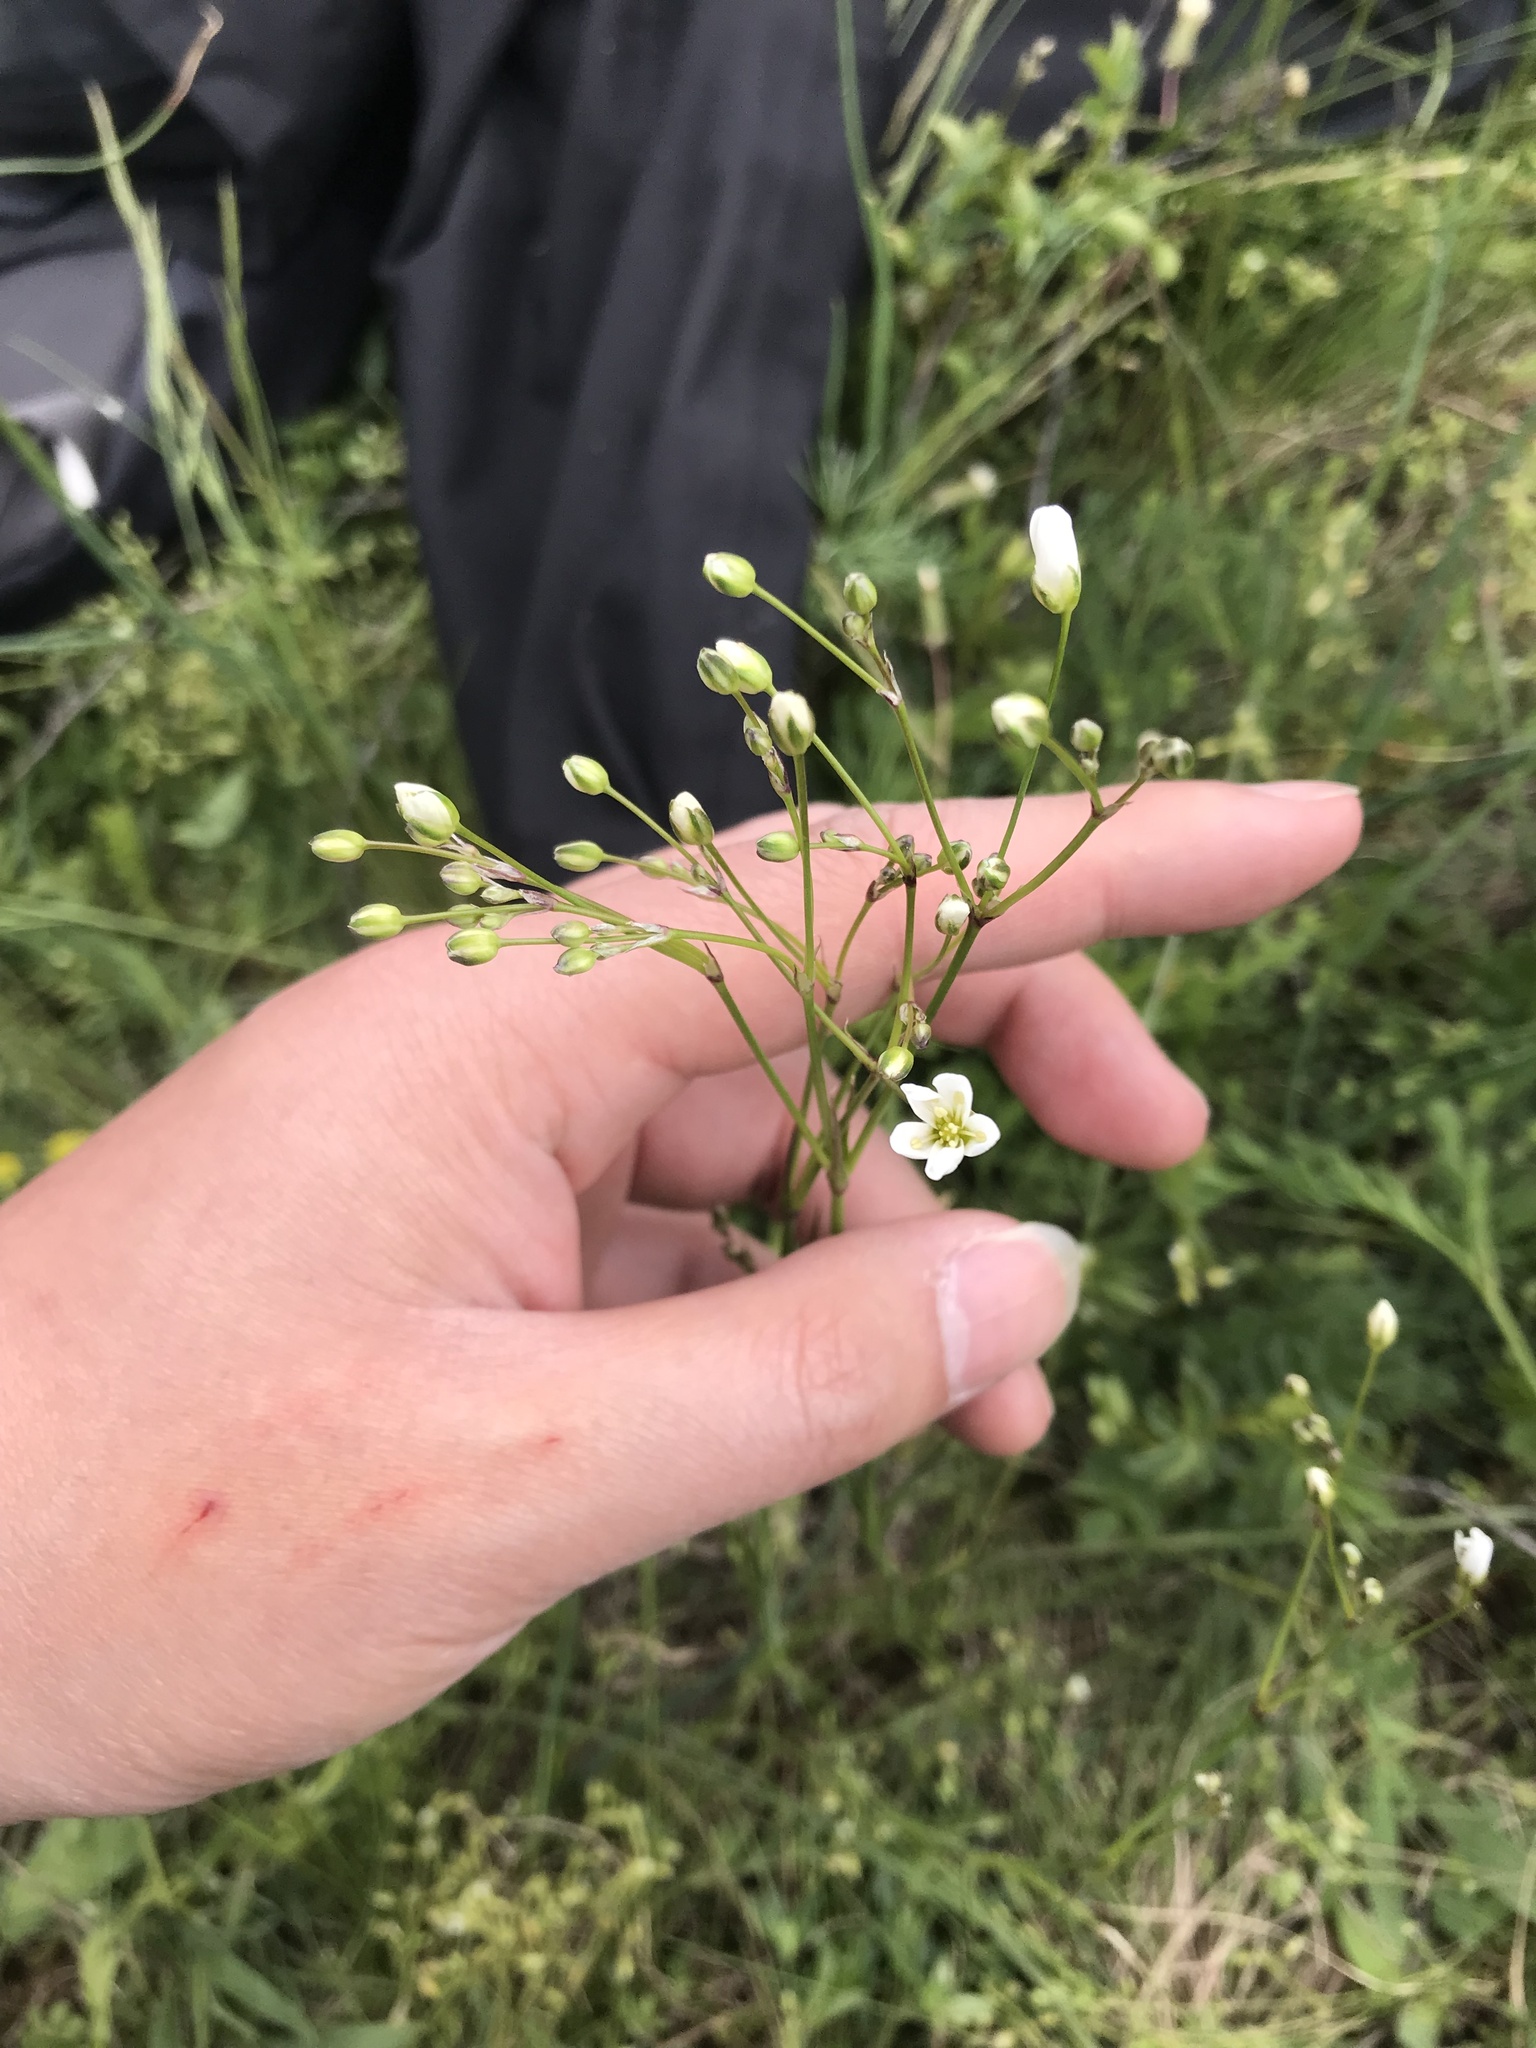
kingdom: Plantae
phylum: Tracheophyta
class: Magnoliopsida
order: Malpighiales
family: Linaceae
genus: Linum
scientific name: Linum catharticum
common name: Fairy flax
